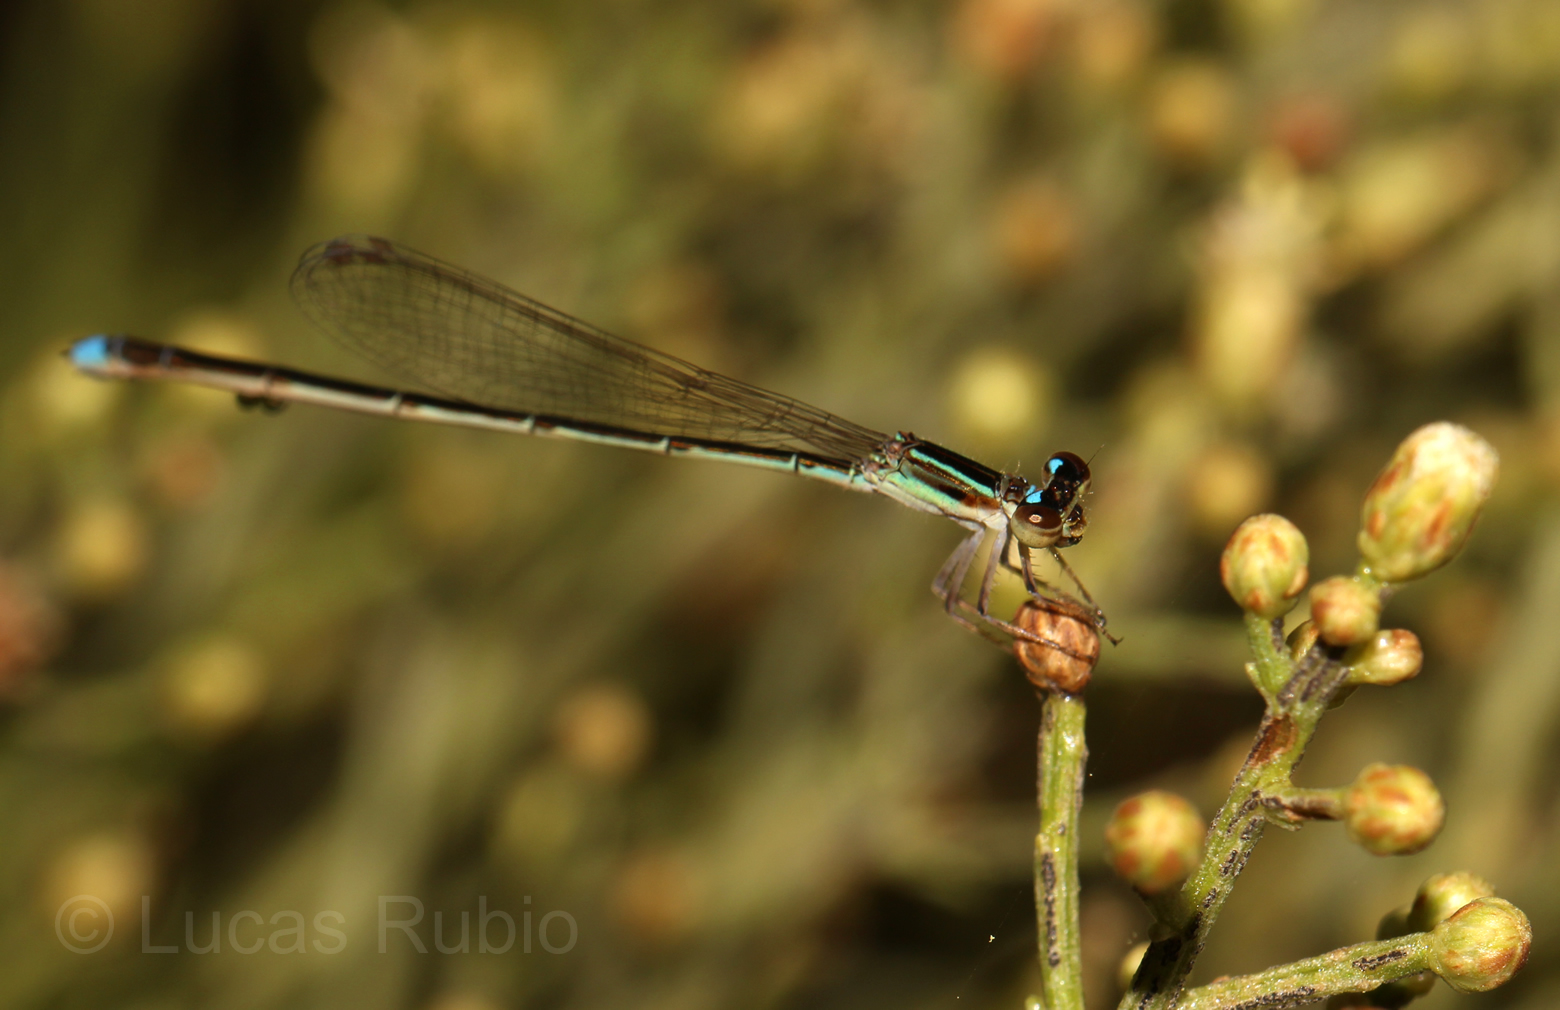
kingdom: Animalia
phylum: Arthropoda
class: Insecta
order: Odonata
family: Coenagrionidae
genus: Argentagrion
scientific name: Argentagrion ambiguum
